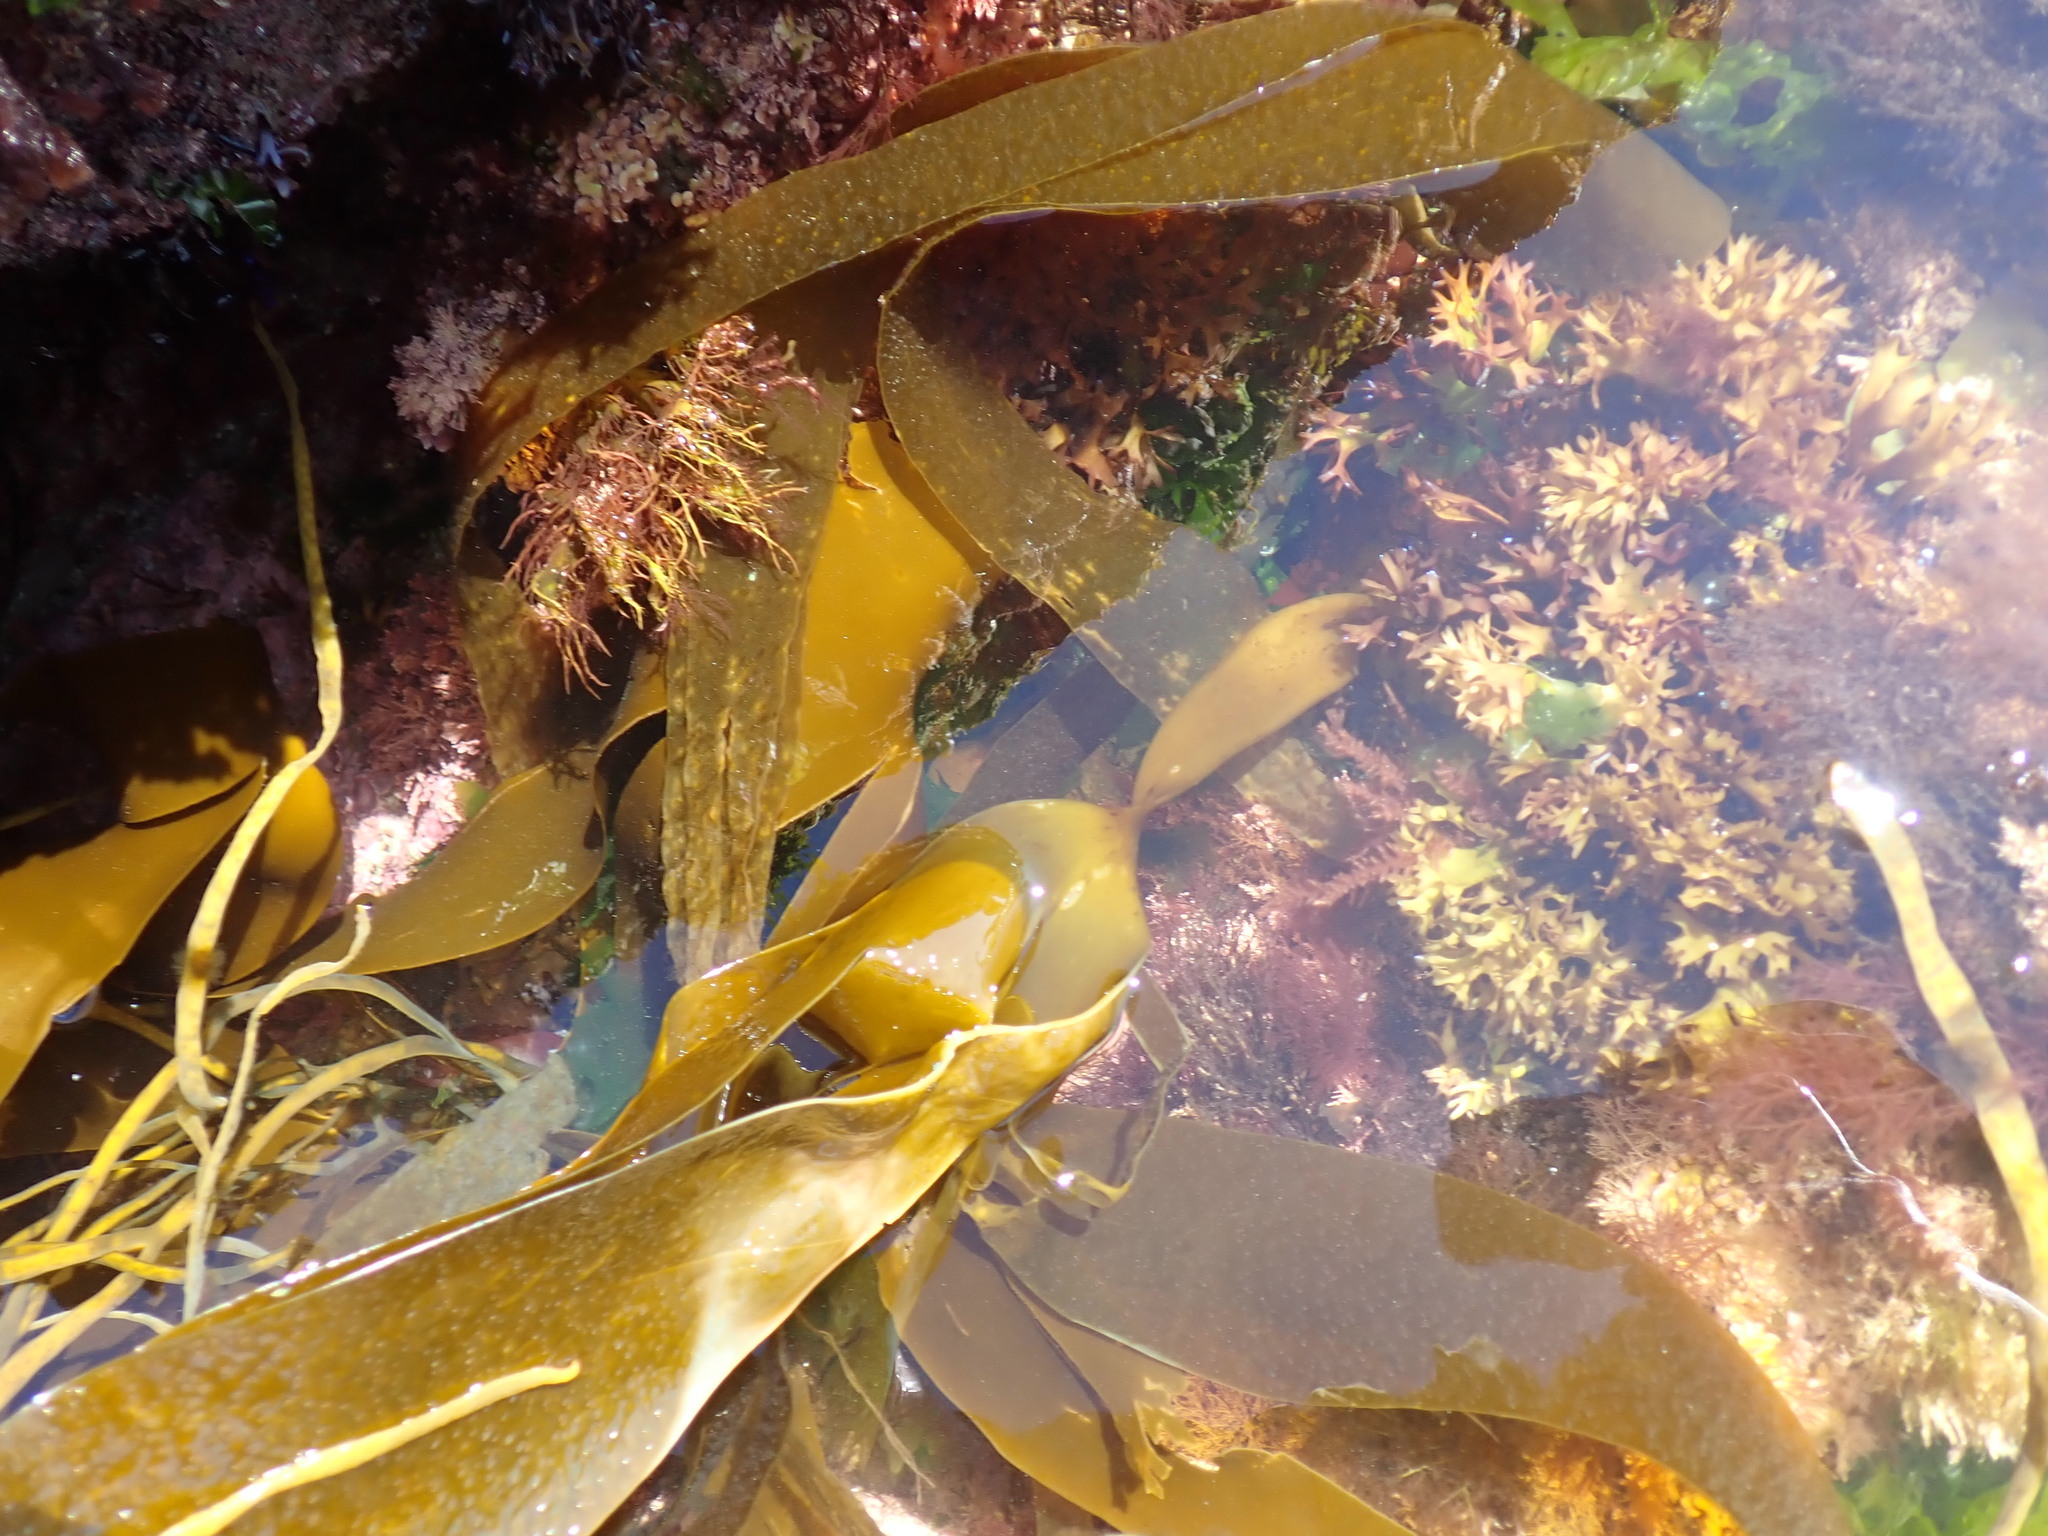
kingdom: Chromista
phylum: Ochrophyta
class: Phaeophyceae
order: Tilopteridales
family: Phyllariaceae
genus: Saccorhiza
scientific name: Saccorhiza polyschides
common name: Furbelows
